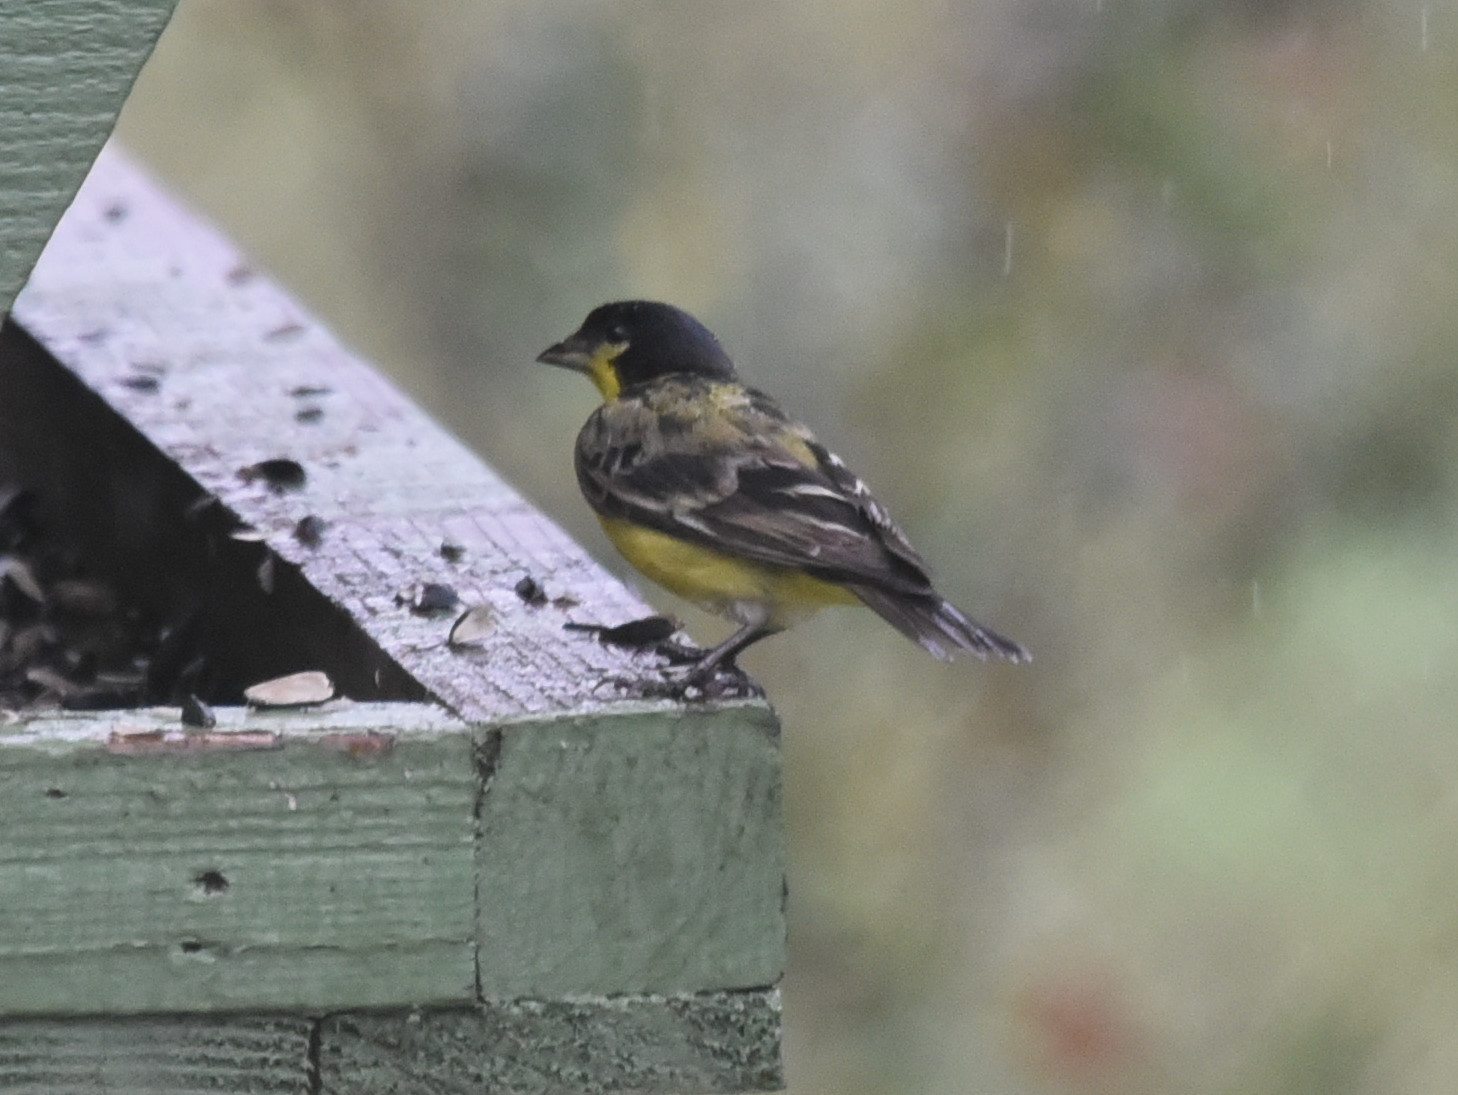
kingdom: Animalia
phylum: Chordata
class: Aves
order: Passeriformes
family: Fringillidae
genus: Spinus
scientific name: Spinus psaltria
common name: Lesser goldfinch
